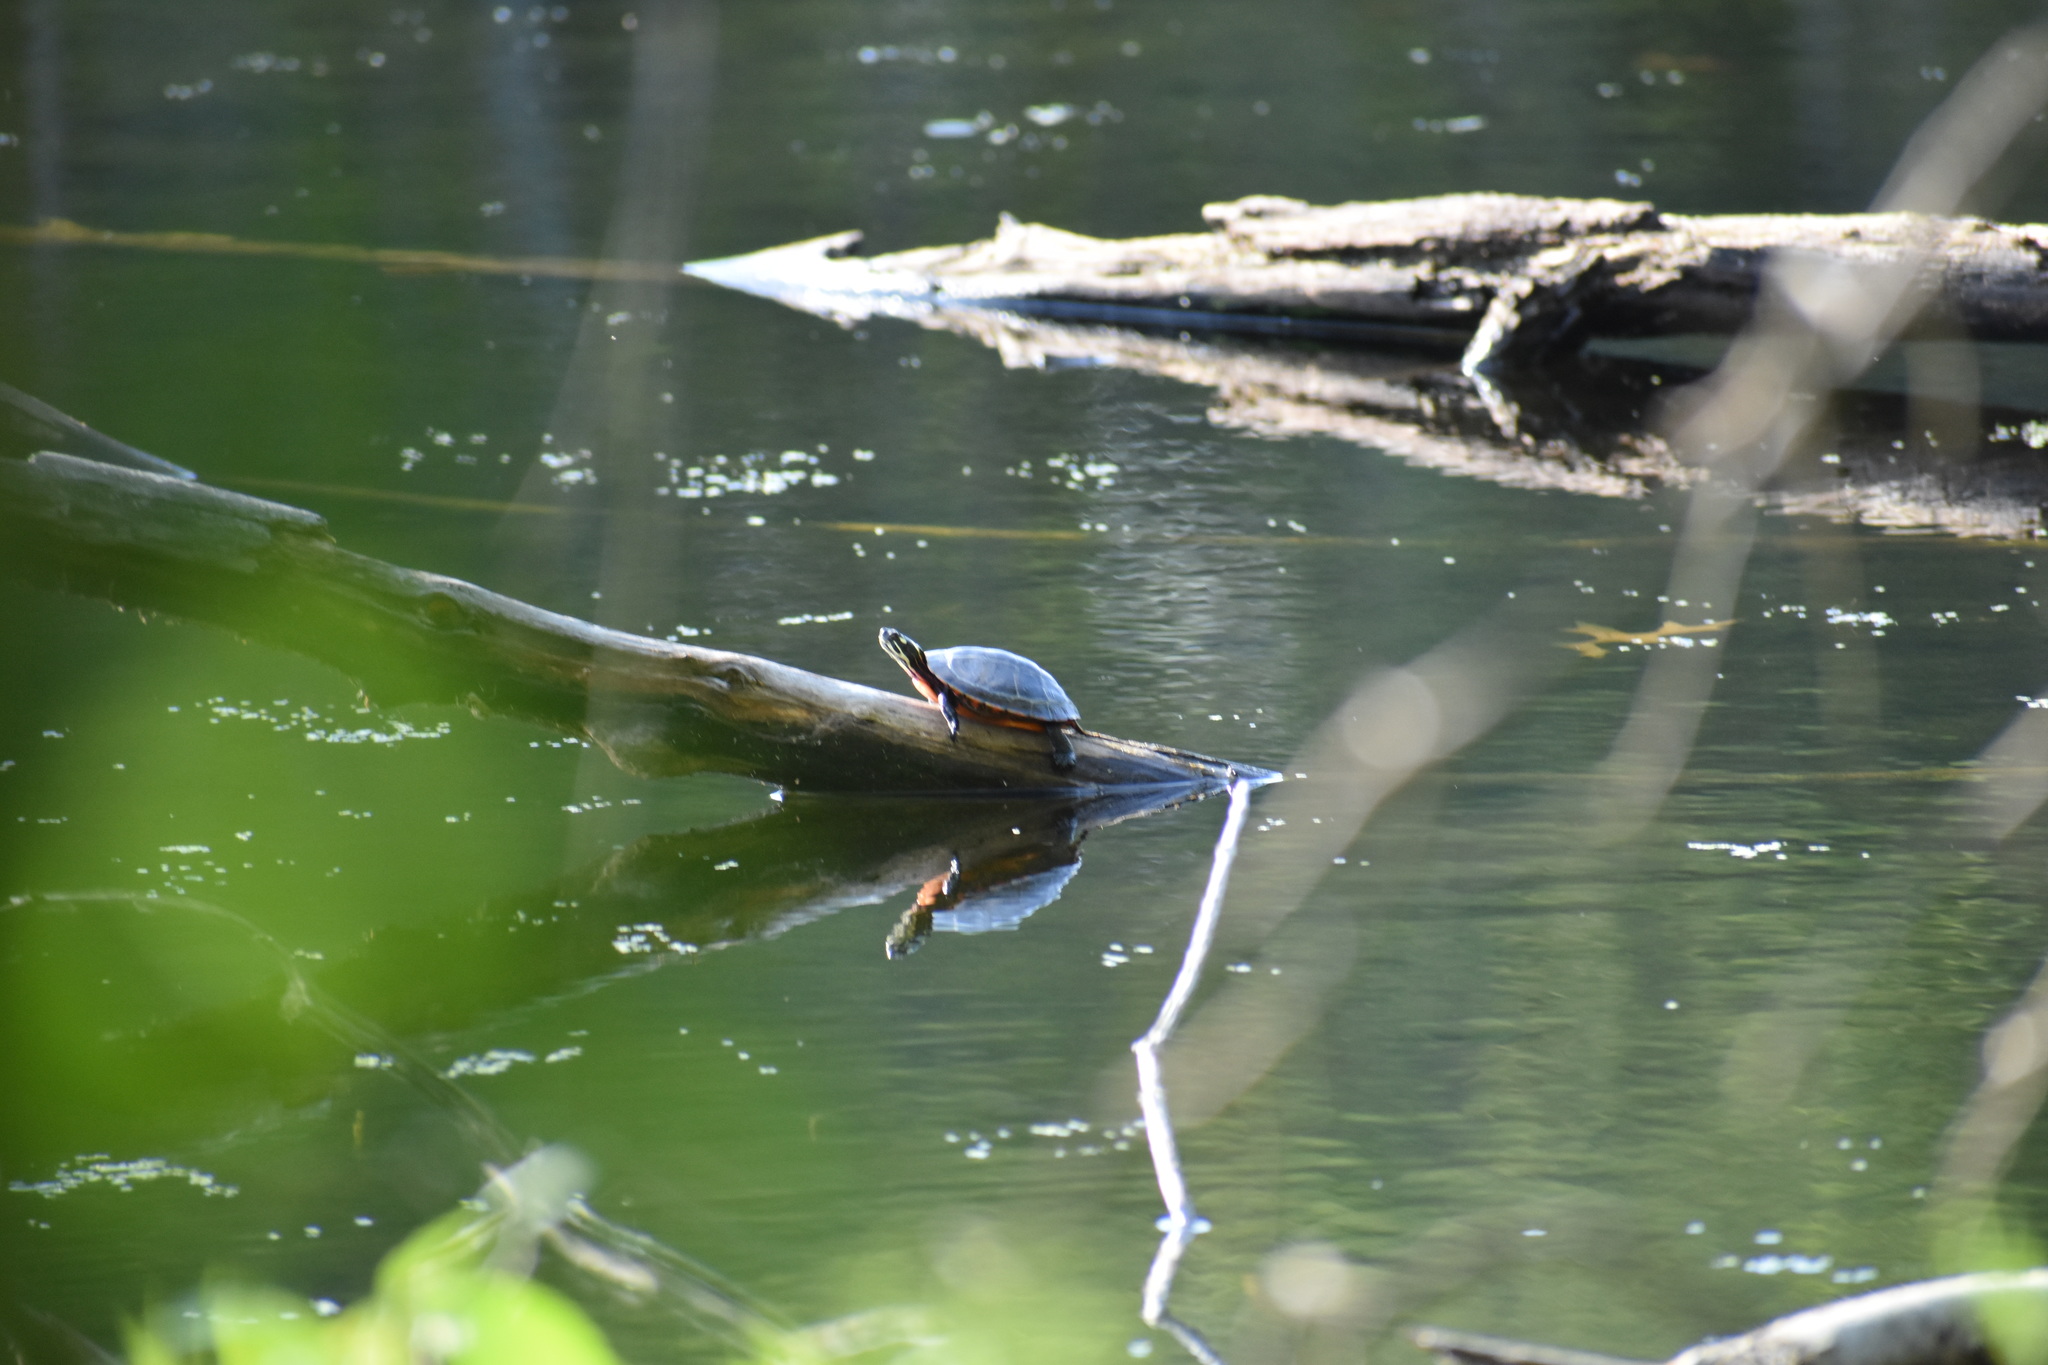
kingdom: Animalia
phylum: Chordata
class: Testudines
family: Emydidae
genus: Chrysemys
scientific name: Chrysemys picta
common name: Painted turtle
